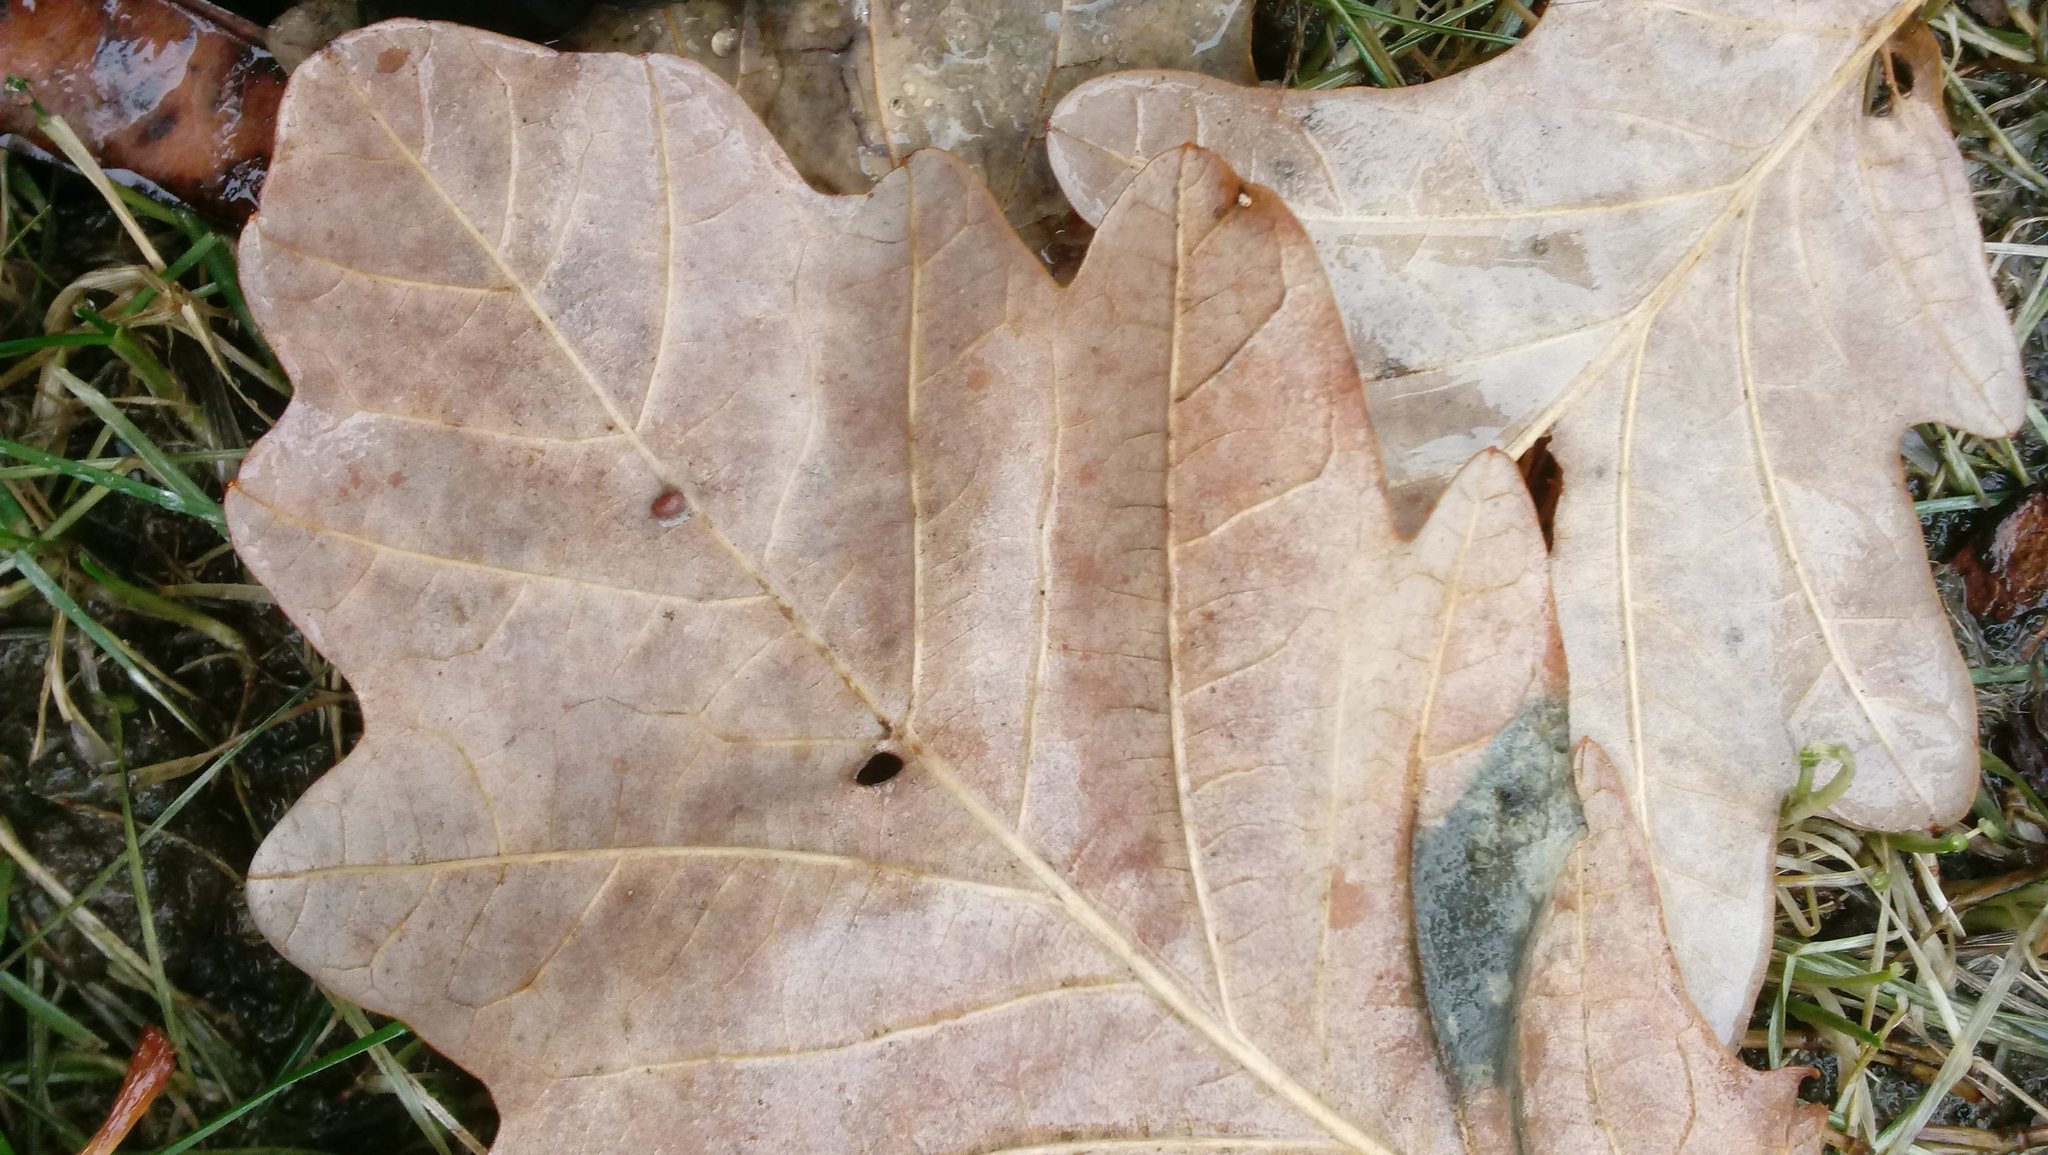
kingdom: Animalia
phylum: Arthropoda
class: Insecta
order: Hymenoptera
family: Cynipidae
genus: Andricus
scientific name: Andricus Druon ignotum
